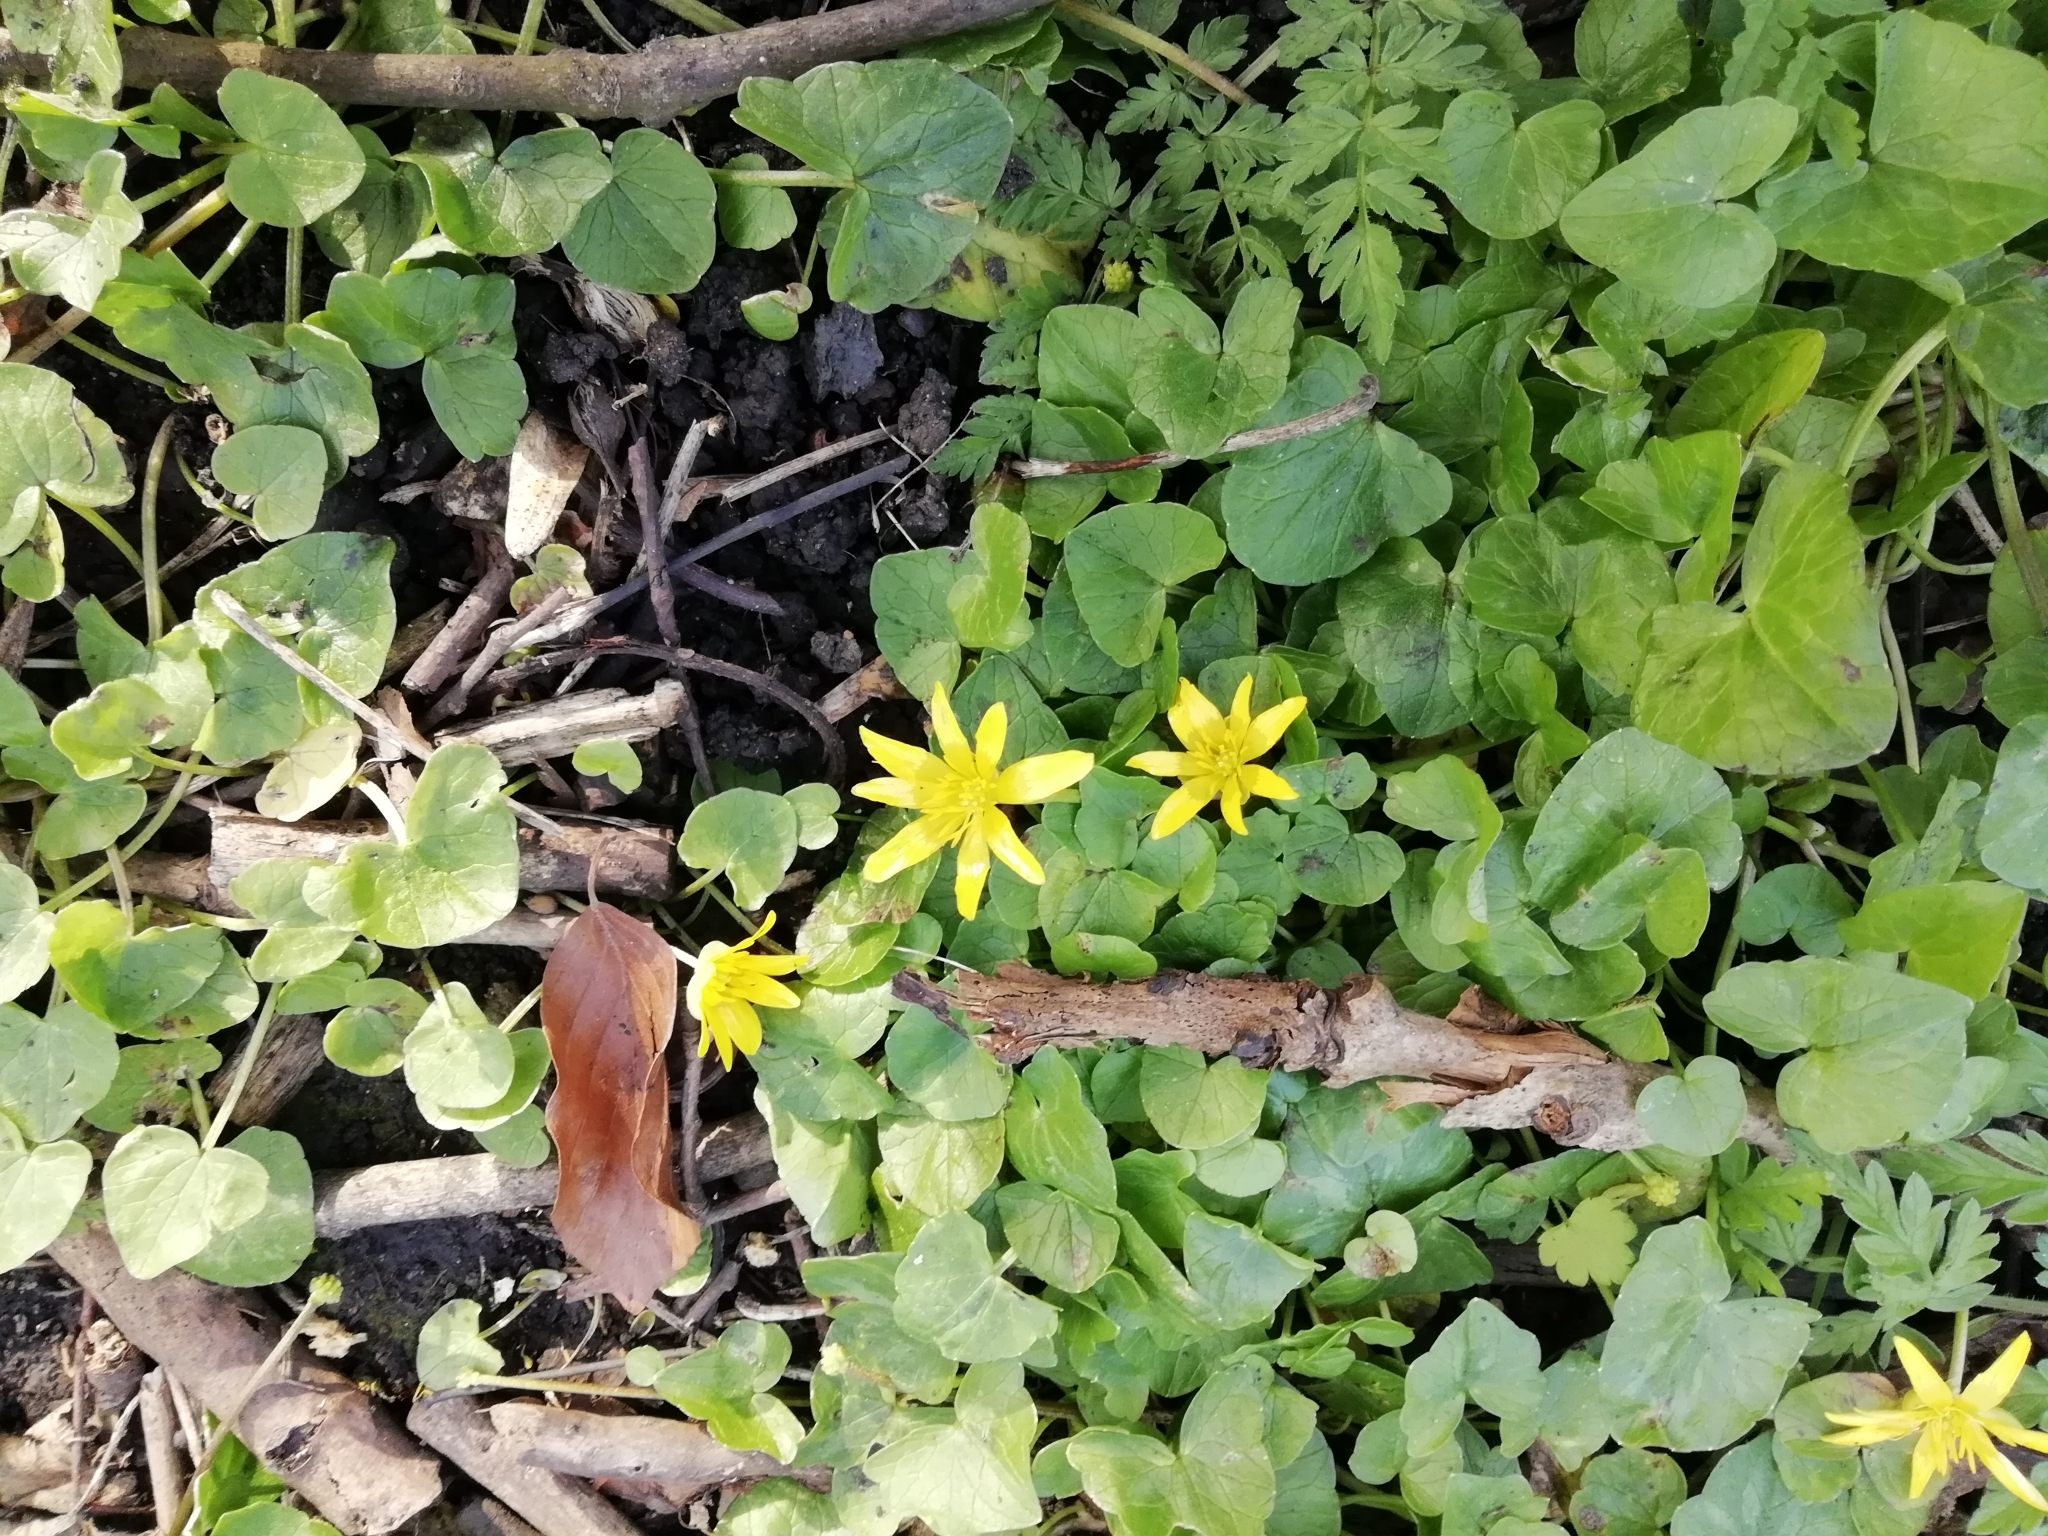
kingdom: Plantae
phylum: Tracheophyta
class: Magnoliopsida
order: Ranunculales
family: Ranunculaceae
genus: Ficaria
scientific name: Ficaria verna
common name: Lesser celandine
